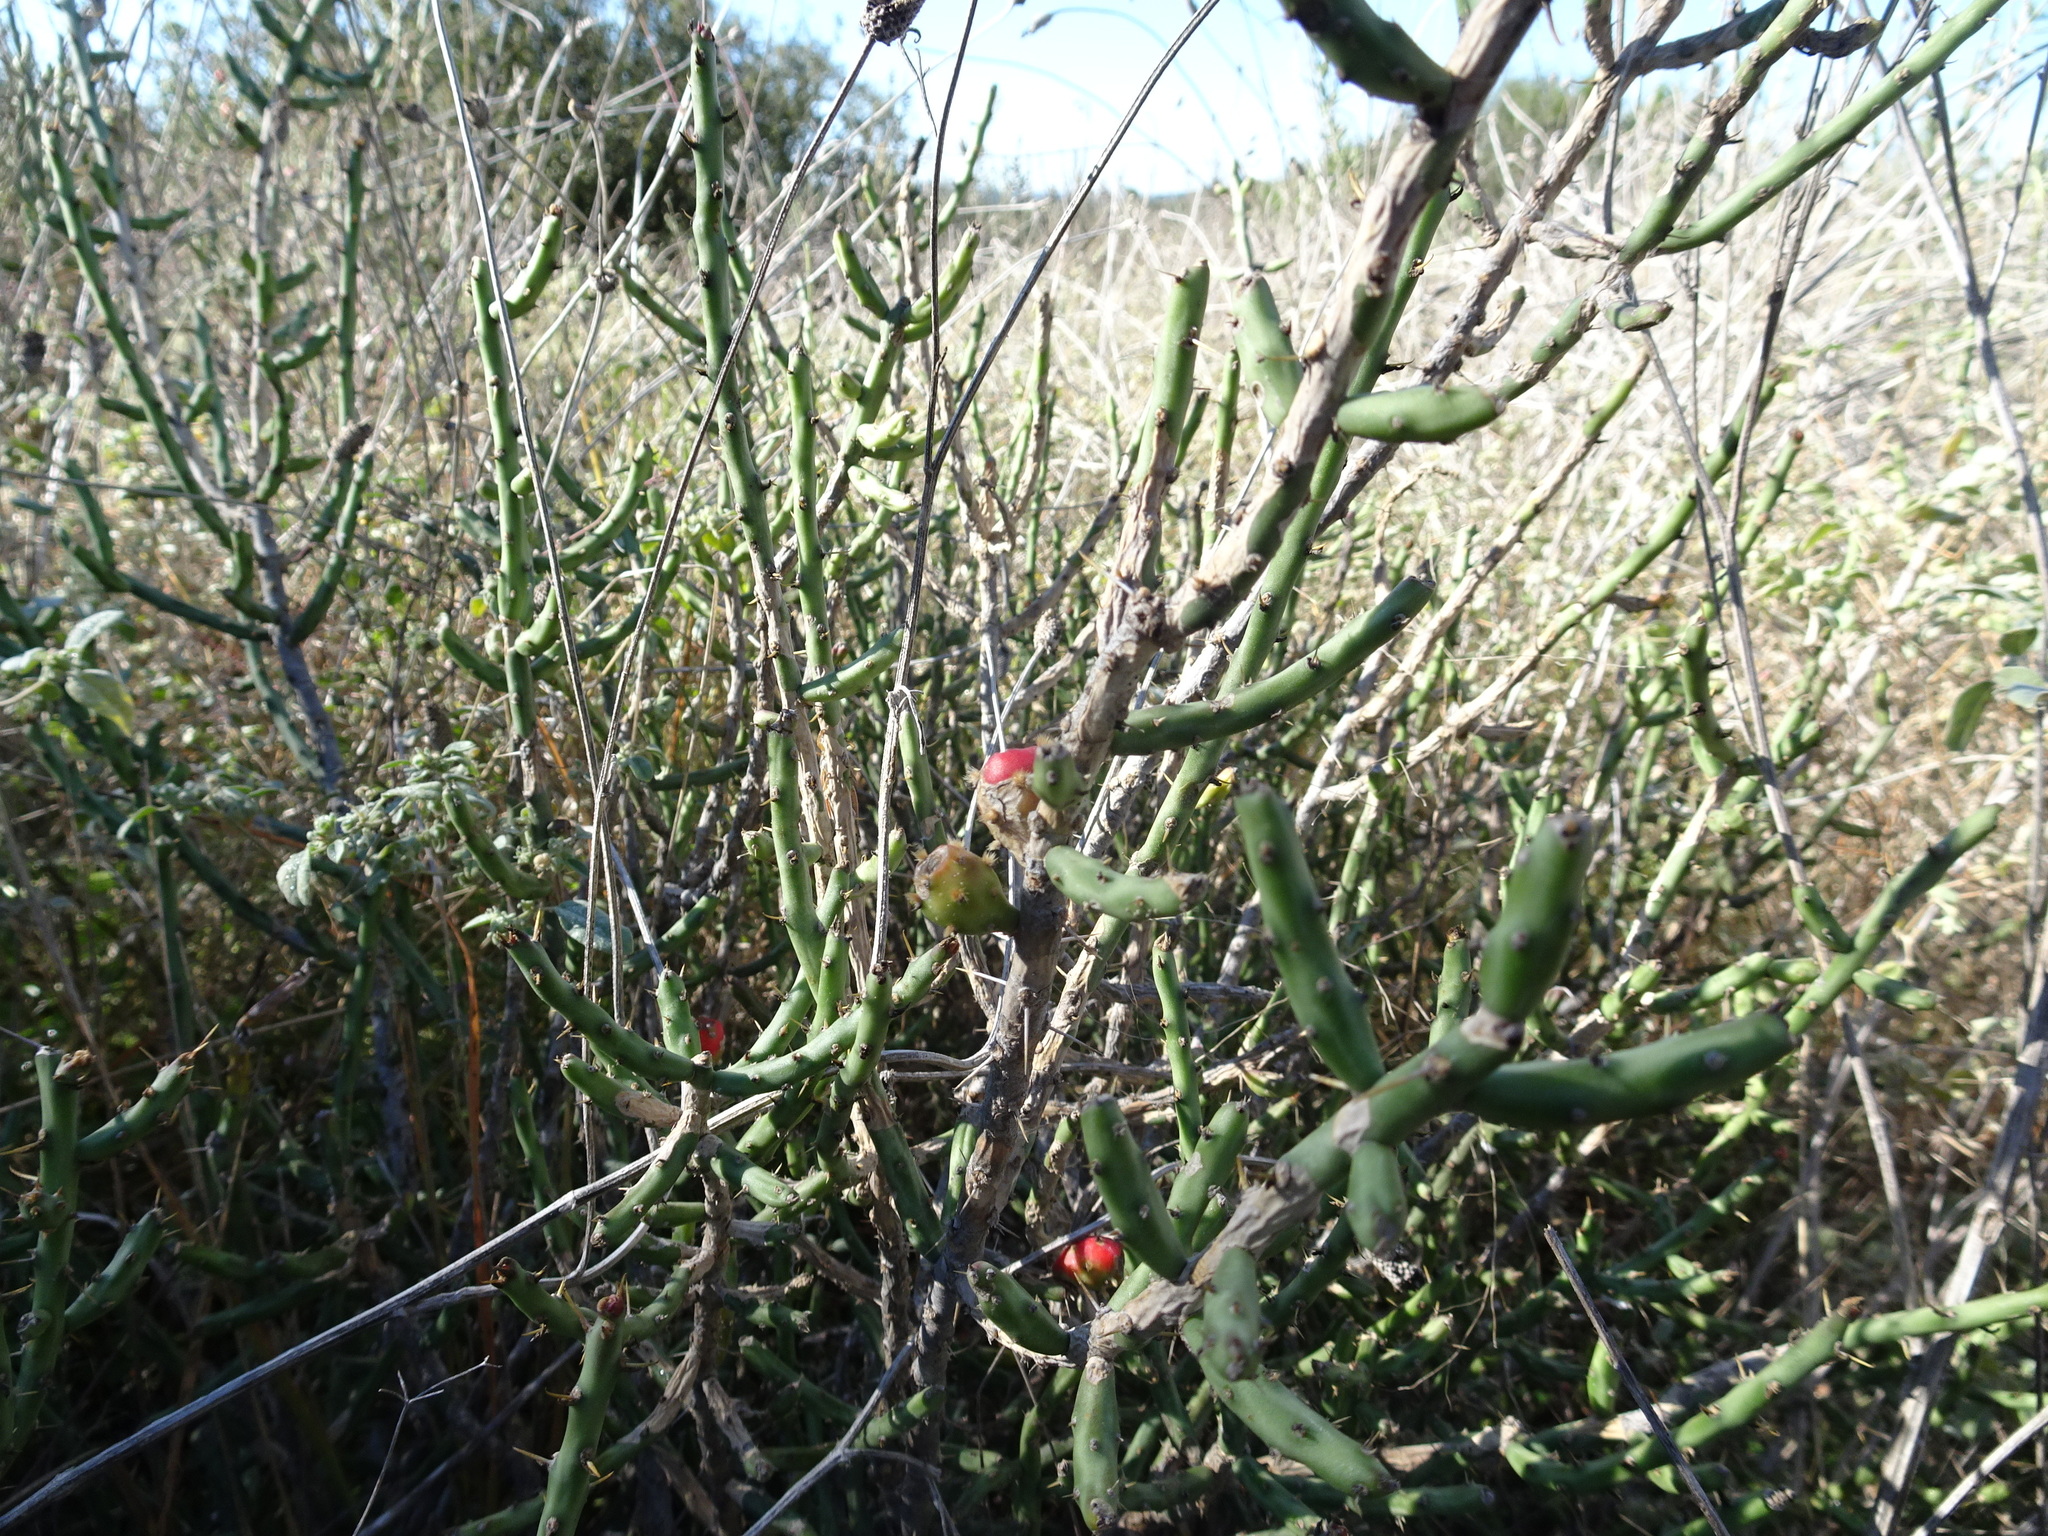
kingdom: Plantae
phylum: Tracheophyta
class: Magnoliopsida
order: Caryophyllales
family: Cactaceae
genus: Cylindropuntia
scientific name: Cylindropuntia leptocaulis
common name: Christmas cactus
